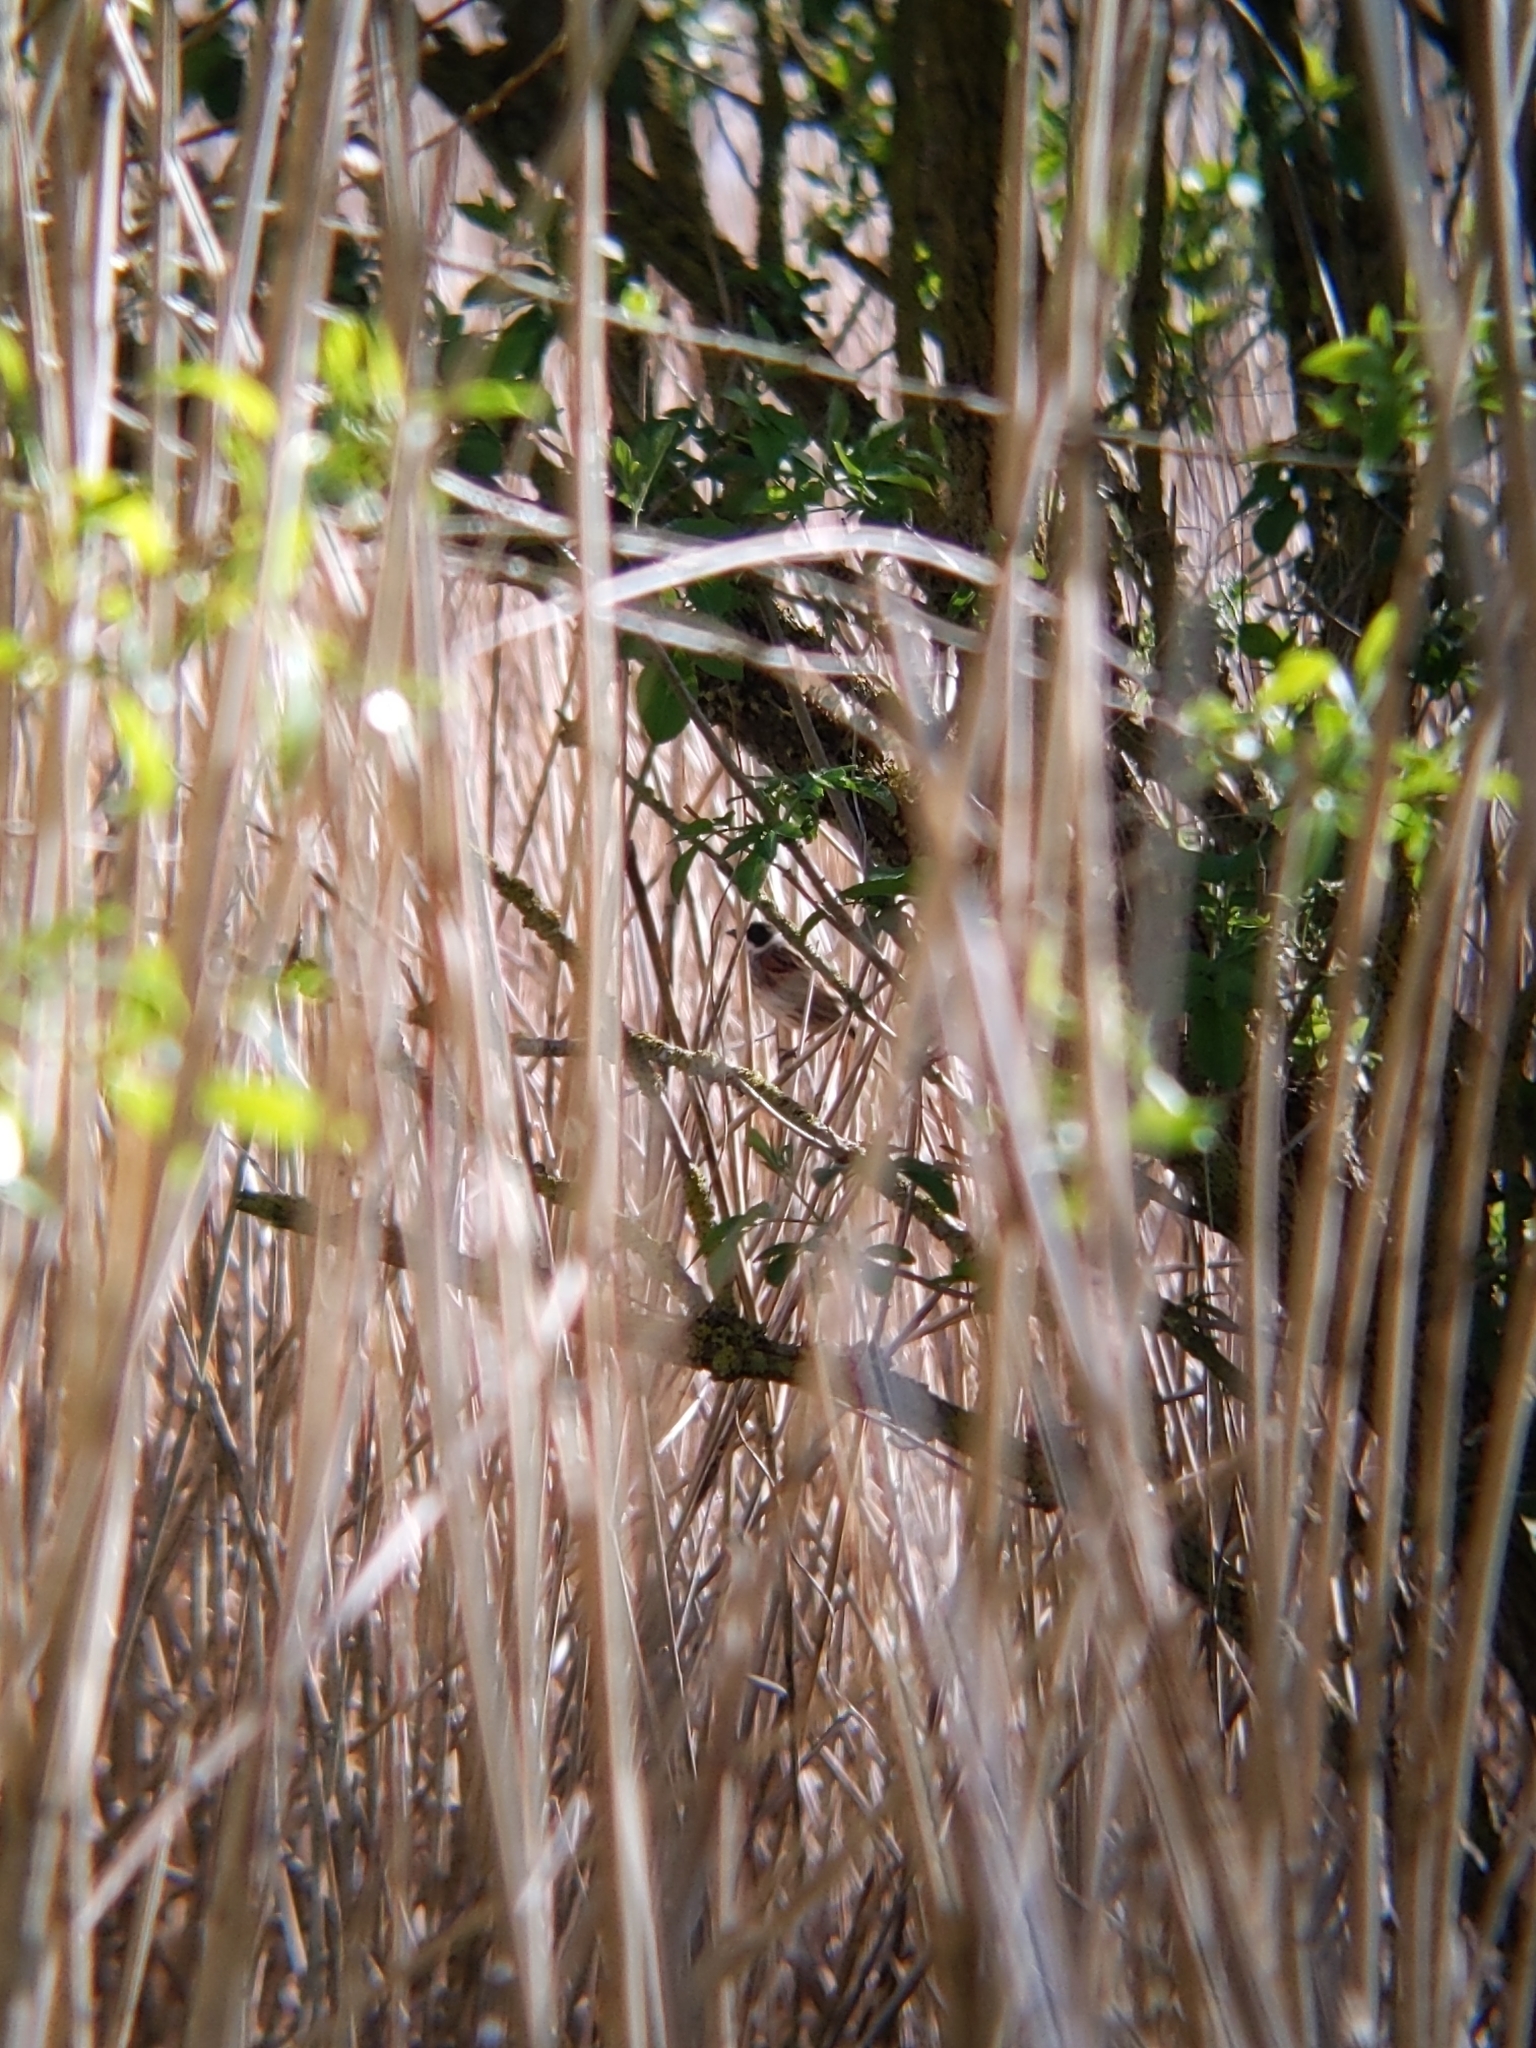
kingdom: Animalia
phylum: Chordata
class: Aves
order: Passeriformes
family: Emberizidae
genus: Emberiza
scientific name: Emberiza schoeniclus
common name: Reed bunting
